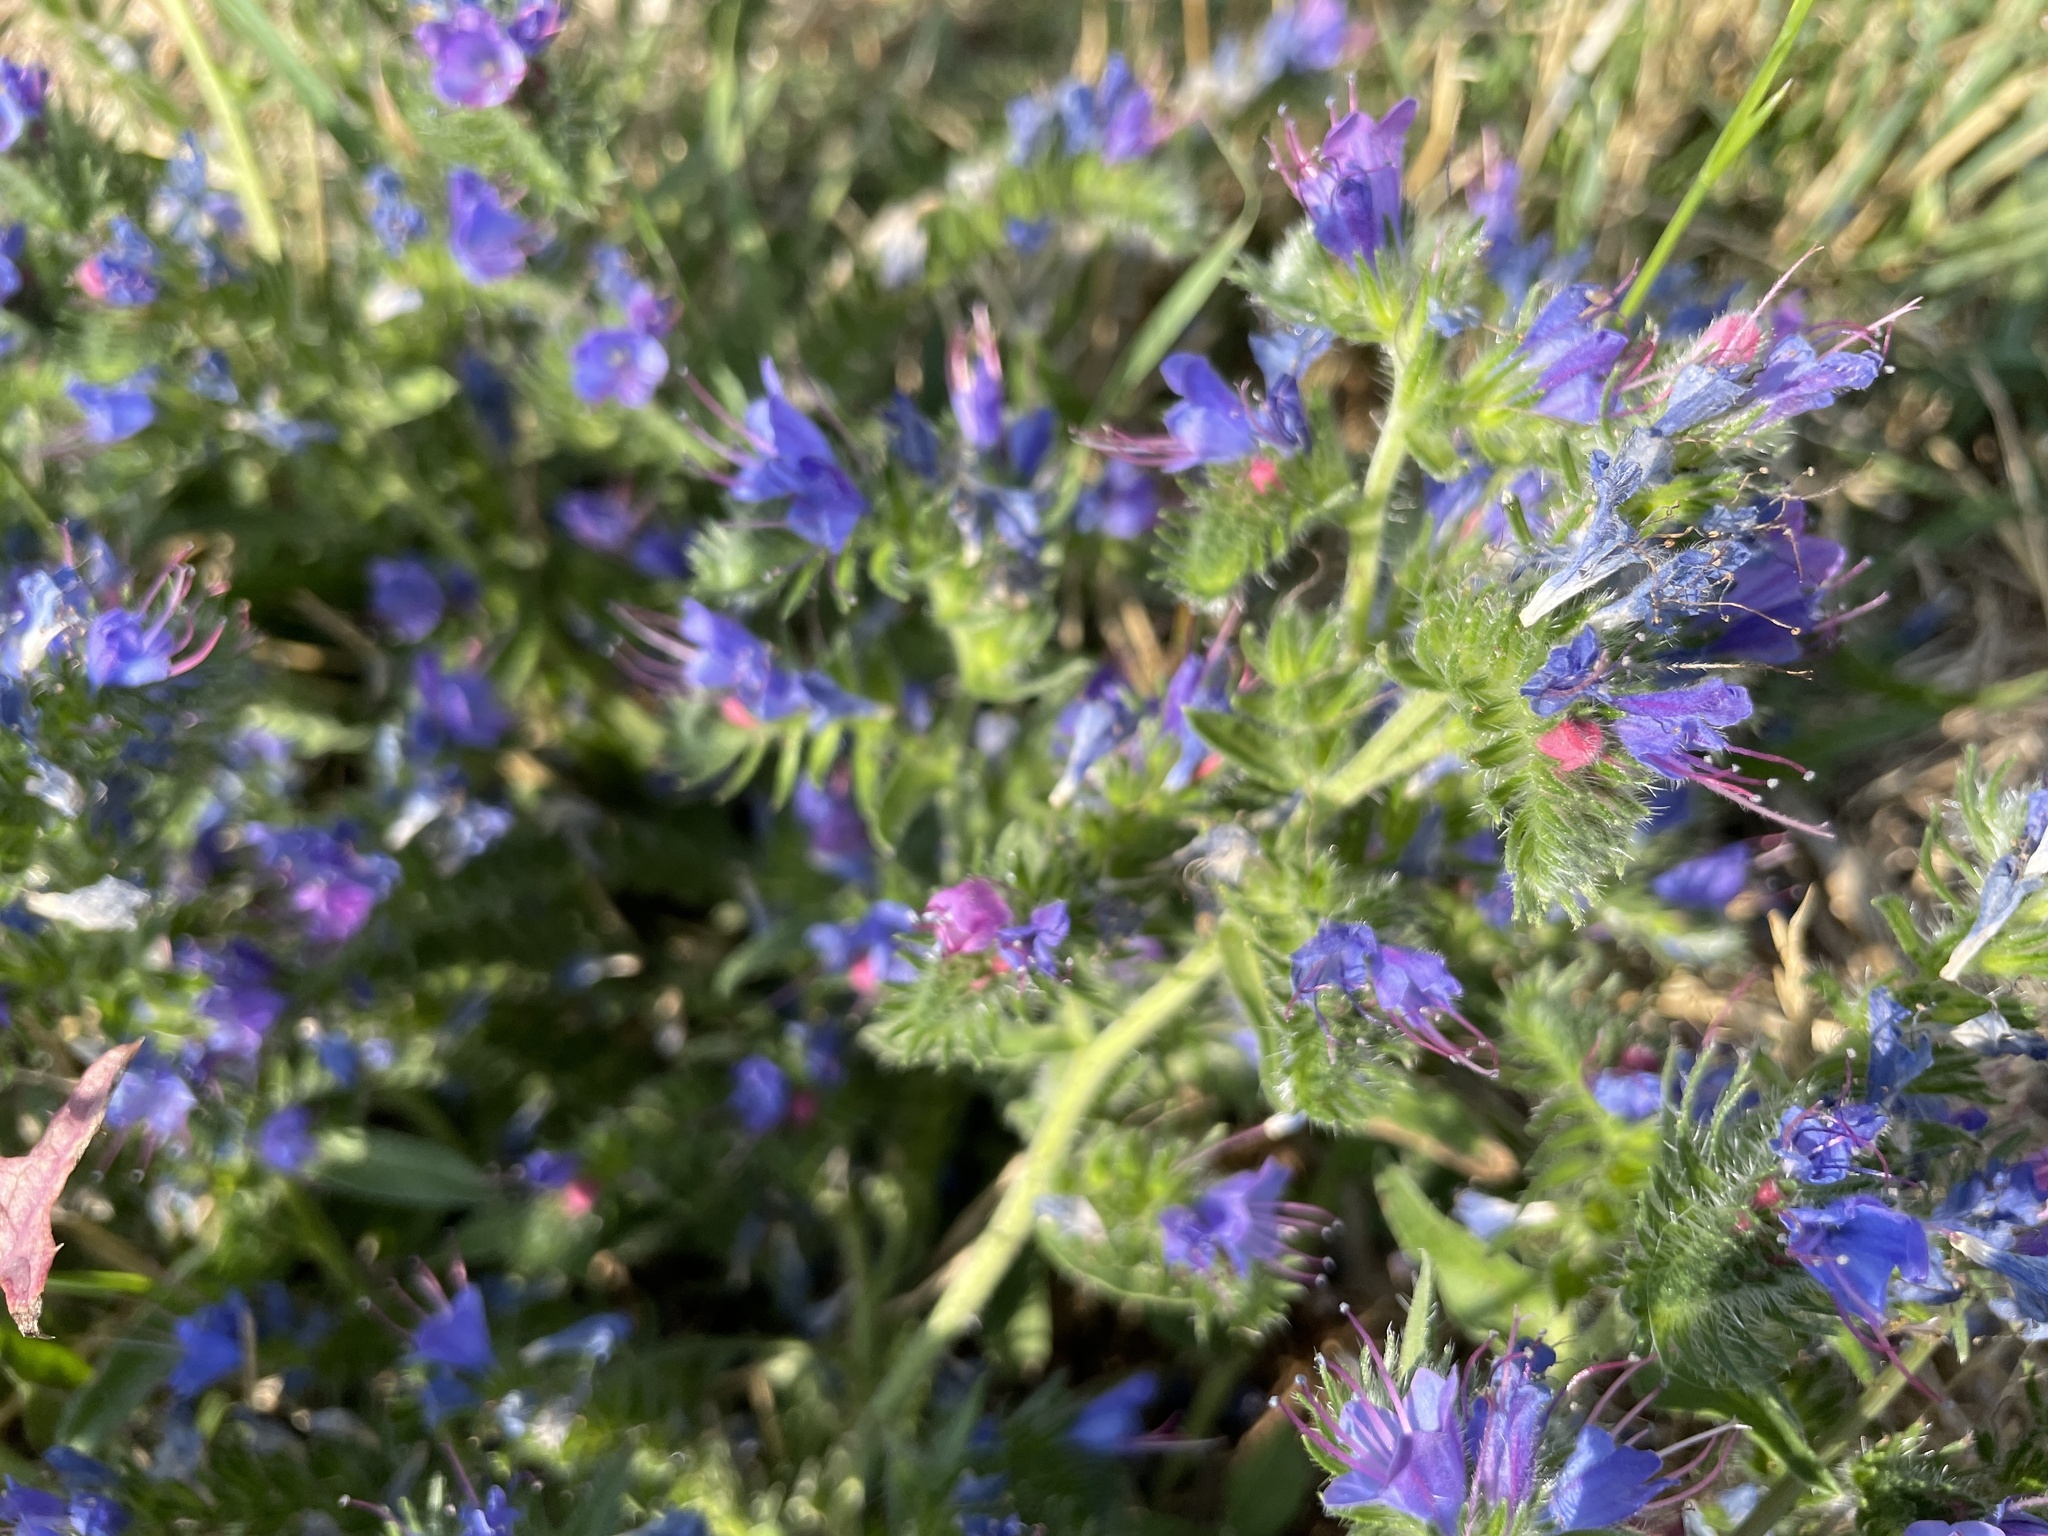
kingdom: Plantae
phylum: Tracheophyta
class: Magnoliopsida
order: Boraginales
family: Boraginaceae
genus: Echium
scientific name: Echium vulgare
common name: Common viper's bugloss
